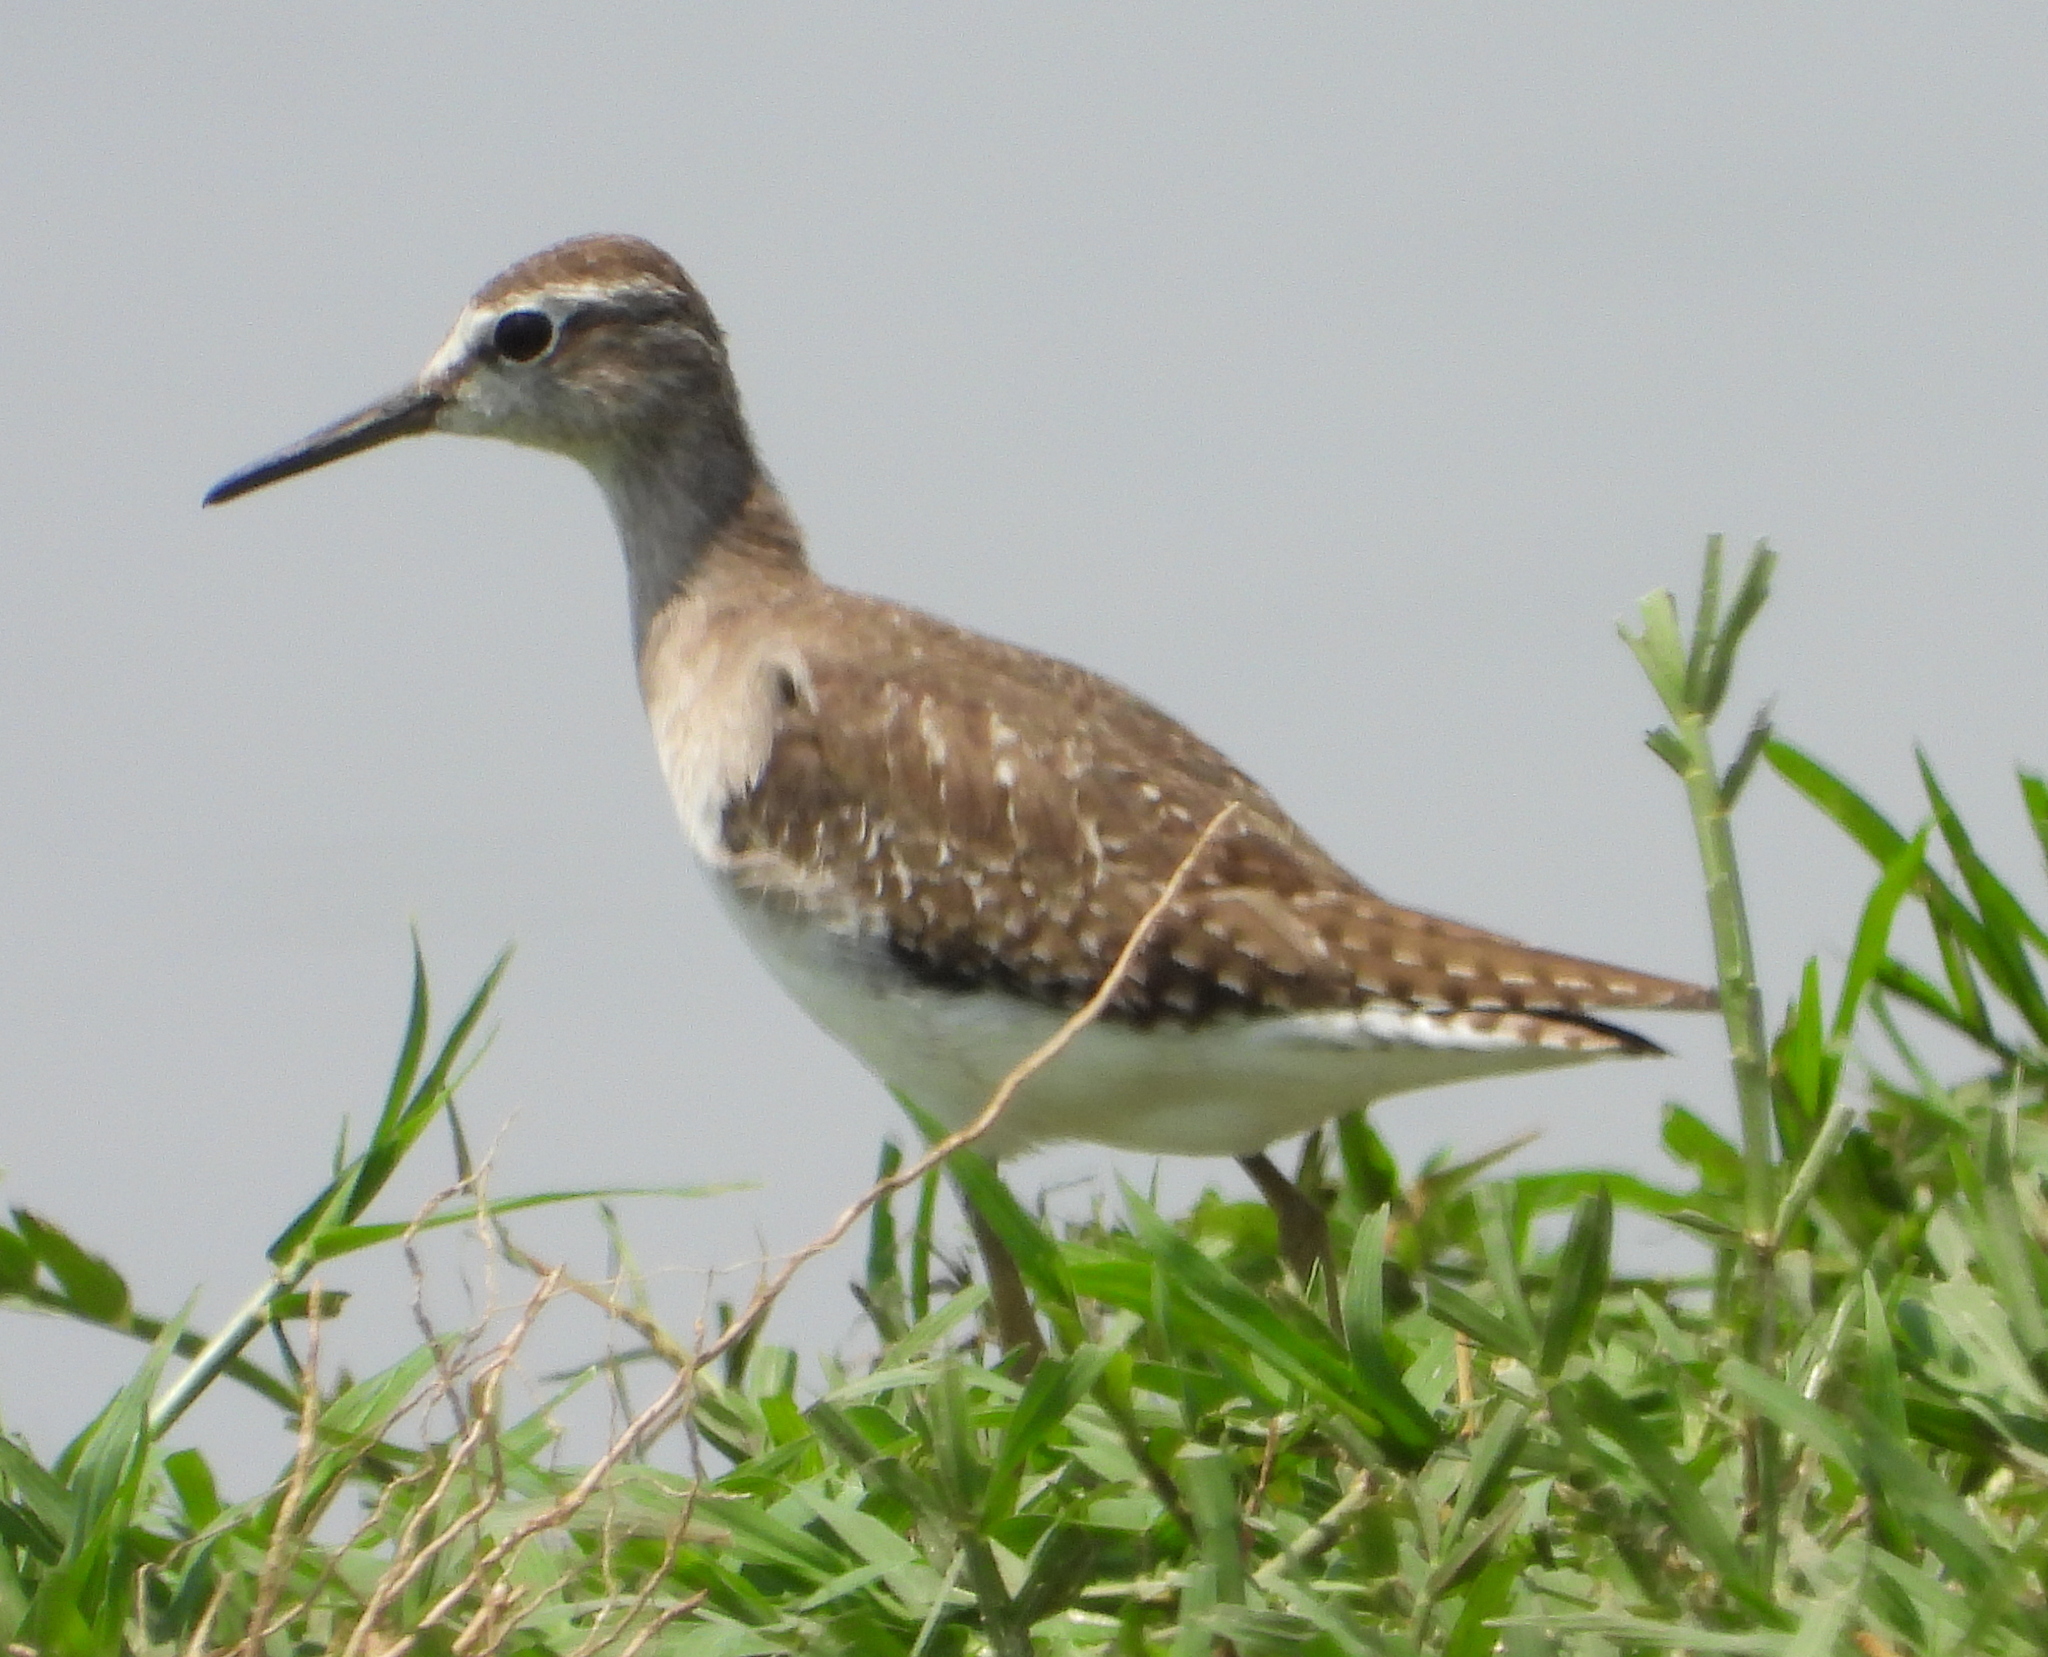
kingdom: Animalia
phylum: Chordata
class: Aves
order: Charadriiformes
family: Scolopacidae
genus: Tringa
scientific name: Tringa glareola
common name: Wood sandpiper
